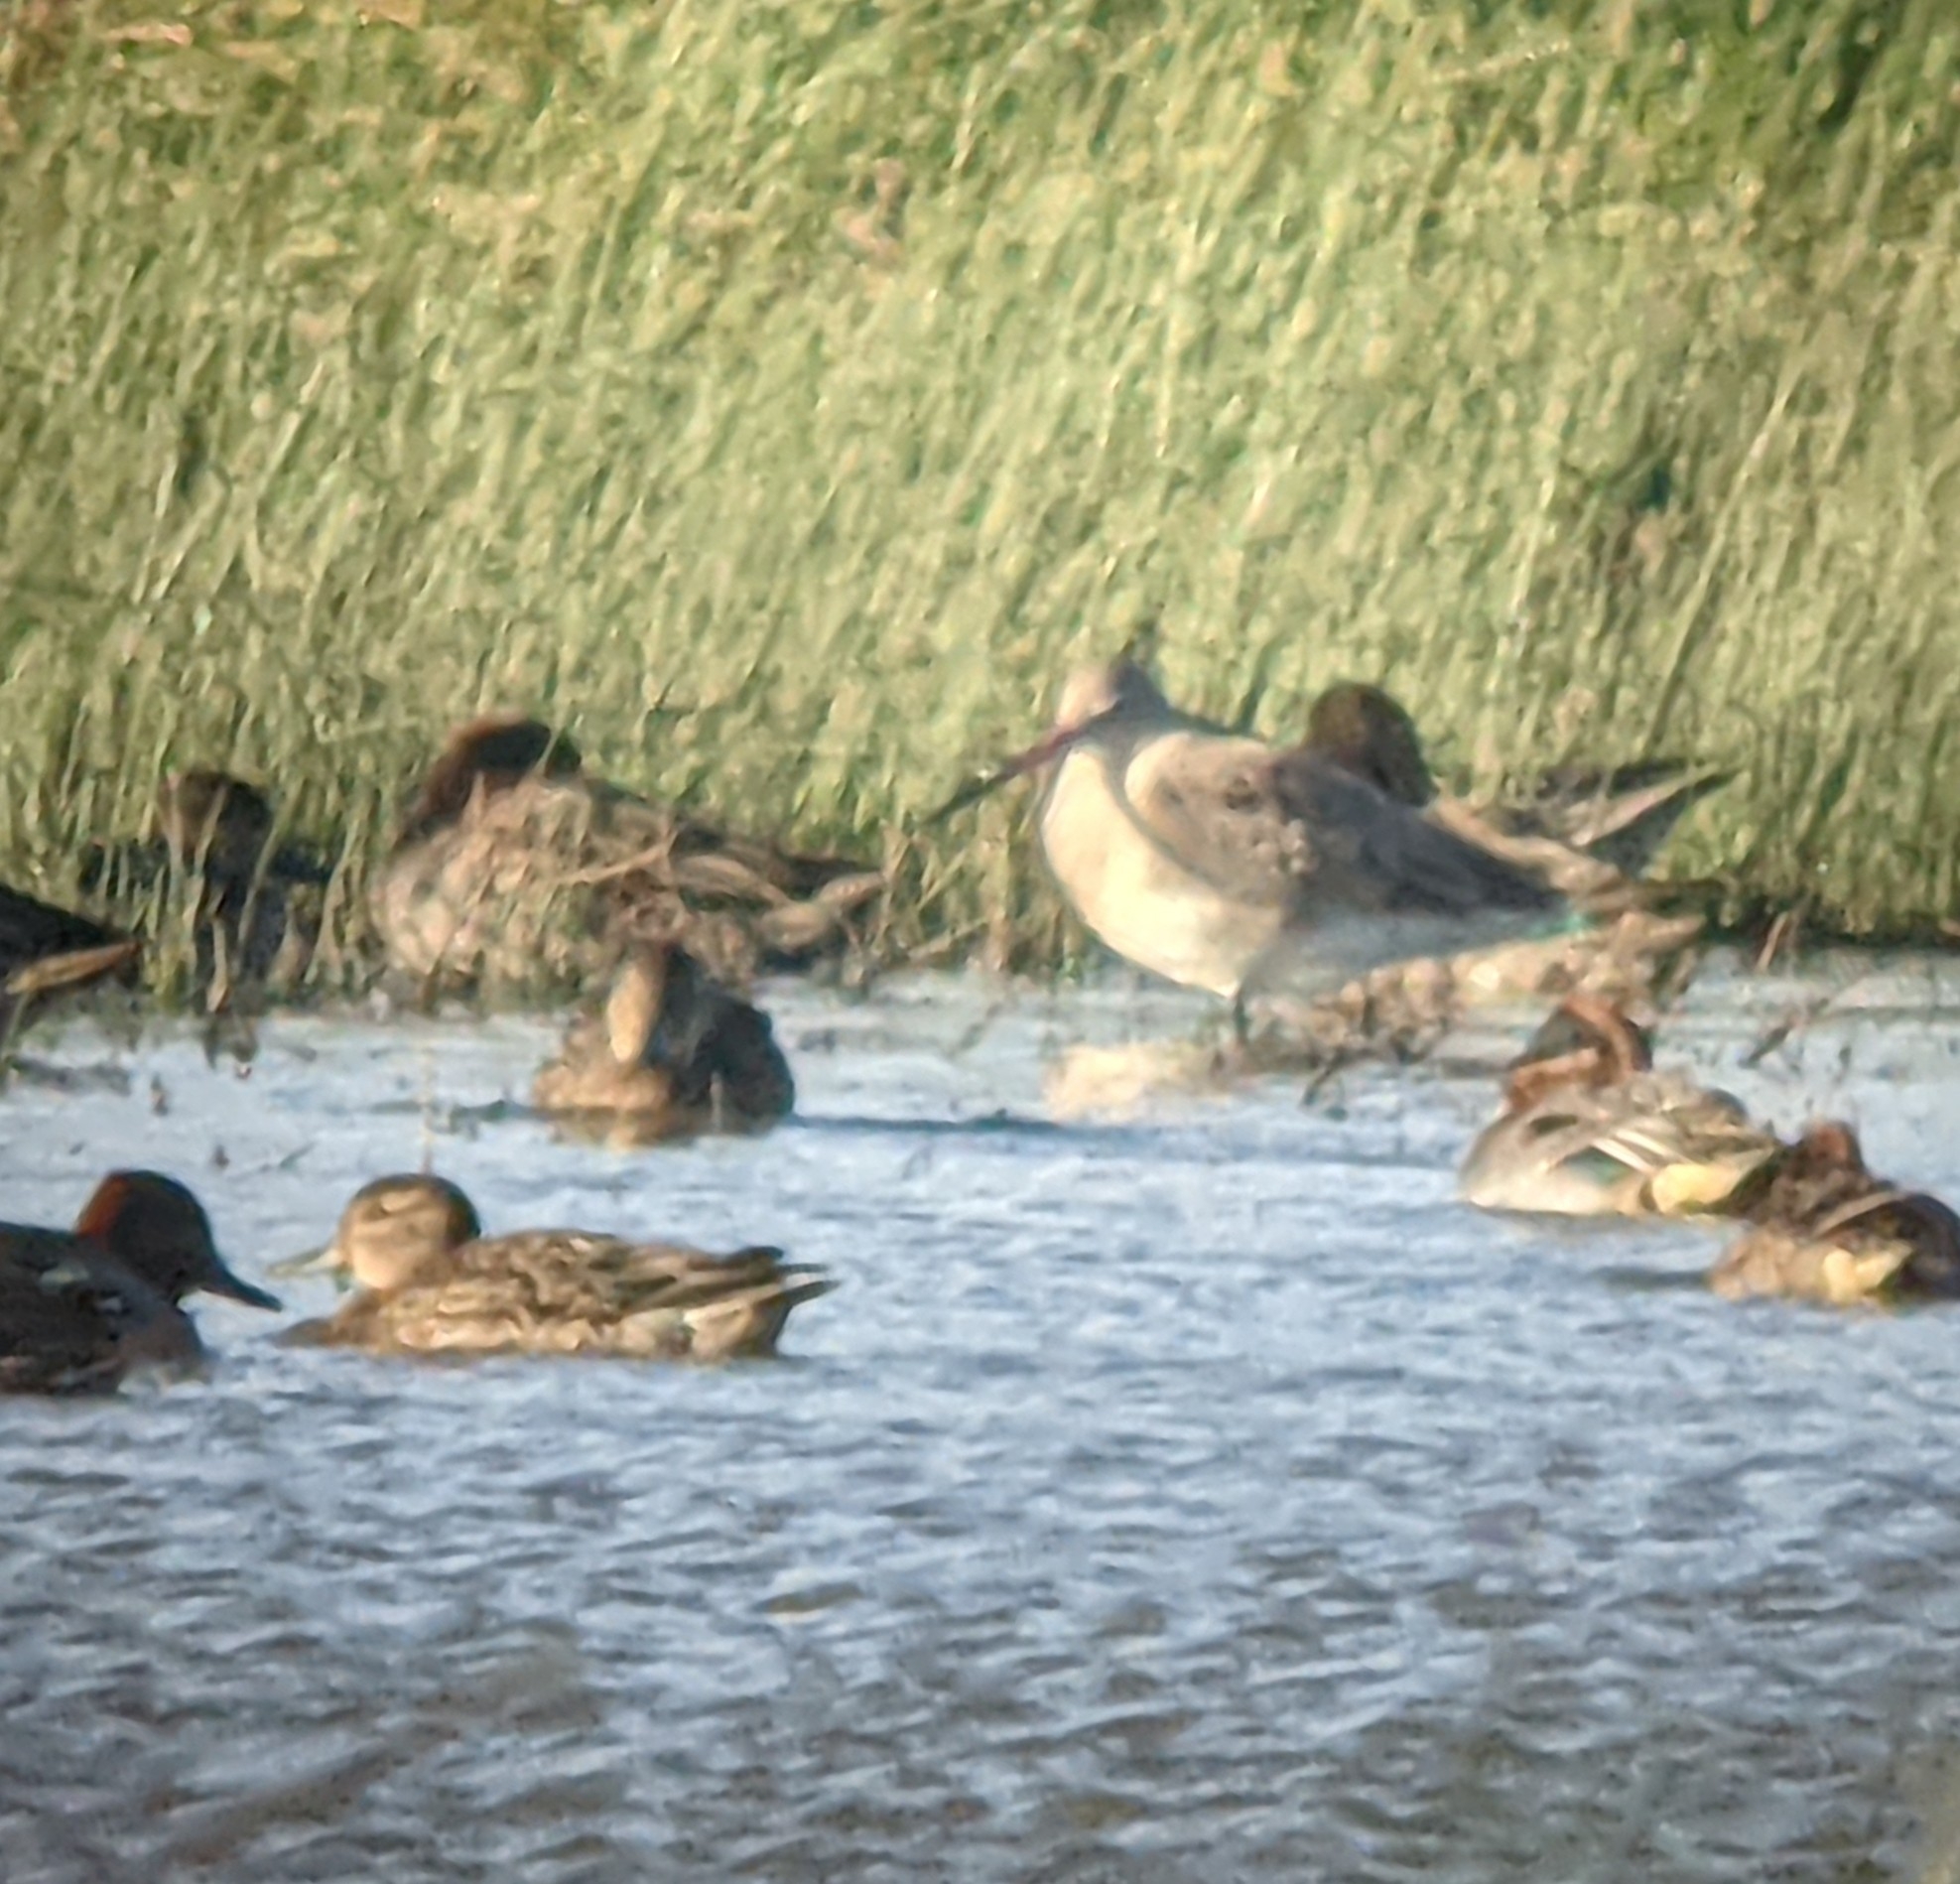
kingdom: Animalia
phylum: Chordata
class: Aves
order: Charadriiformes
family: Scolopacidae
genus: Limosa
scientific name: Limosa limosa
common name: Black-tailed godwit
